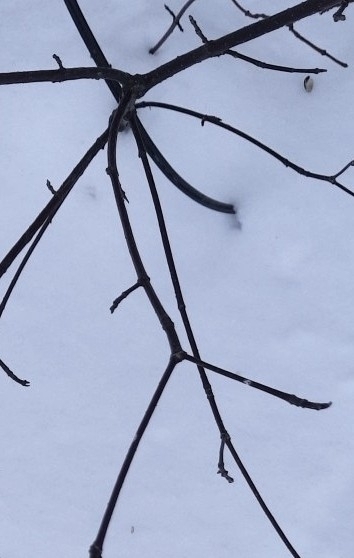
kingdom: Plantae
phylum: Tracheophyta
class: Magnoliopsida
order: Cornales
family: Cornaceae
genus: Cornus
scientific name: Cornus alba
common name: White dogwood
